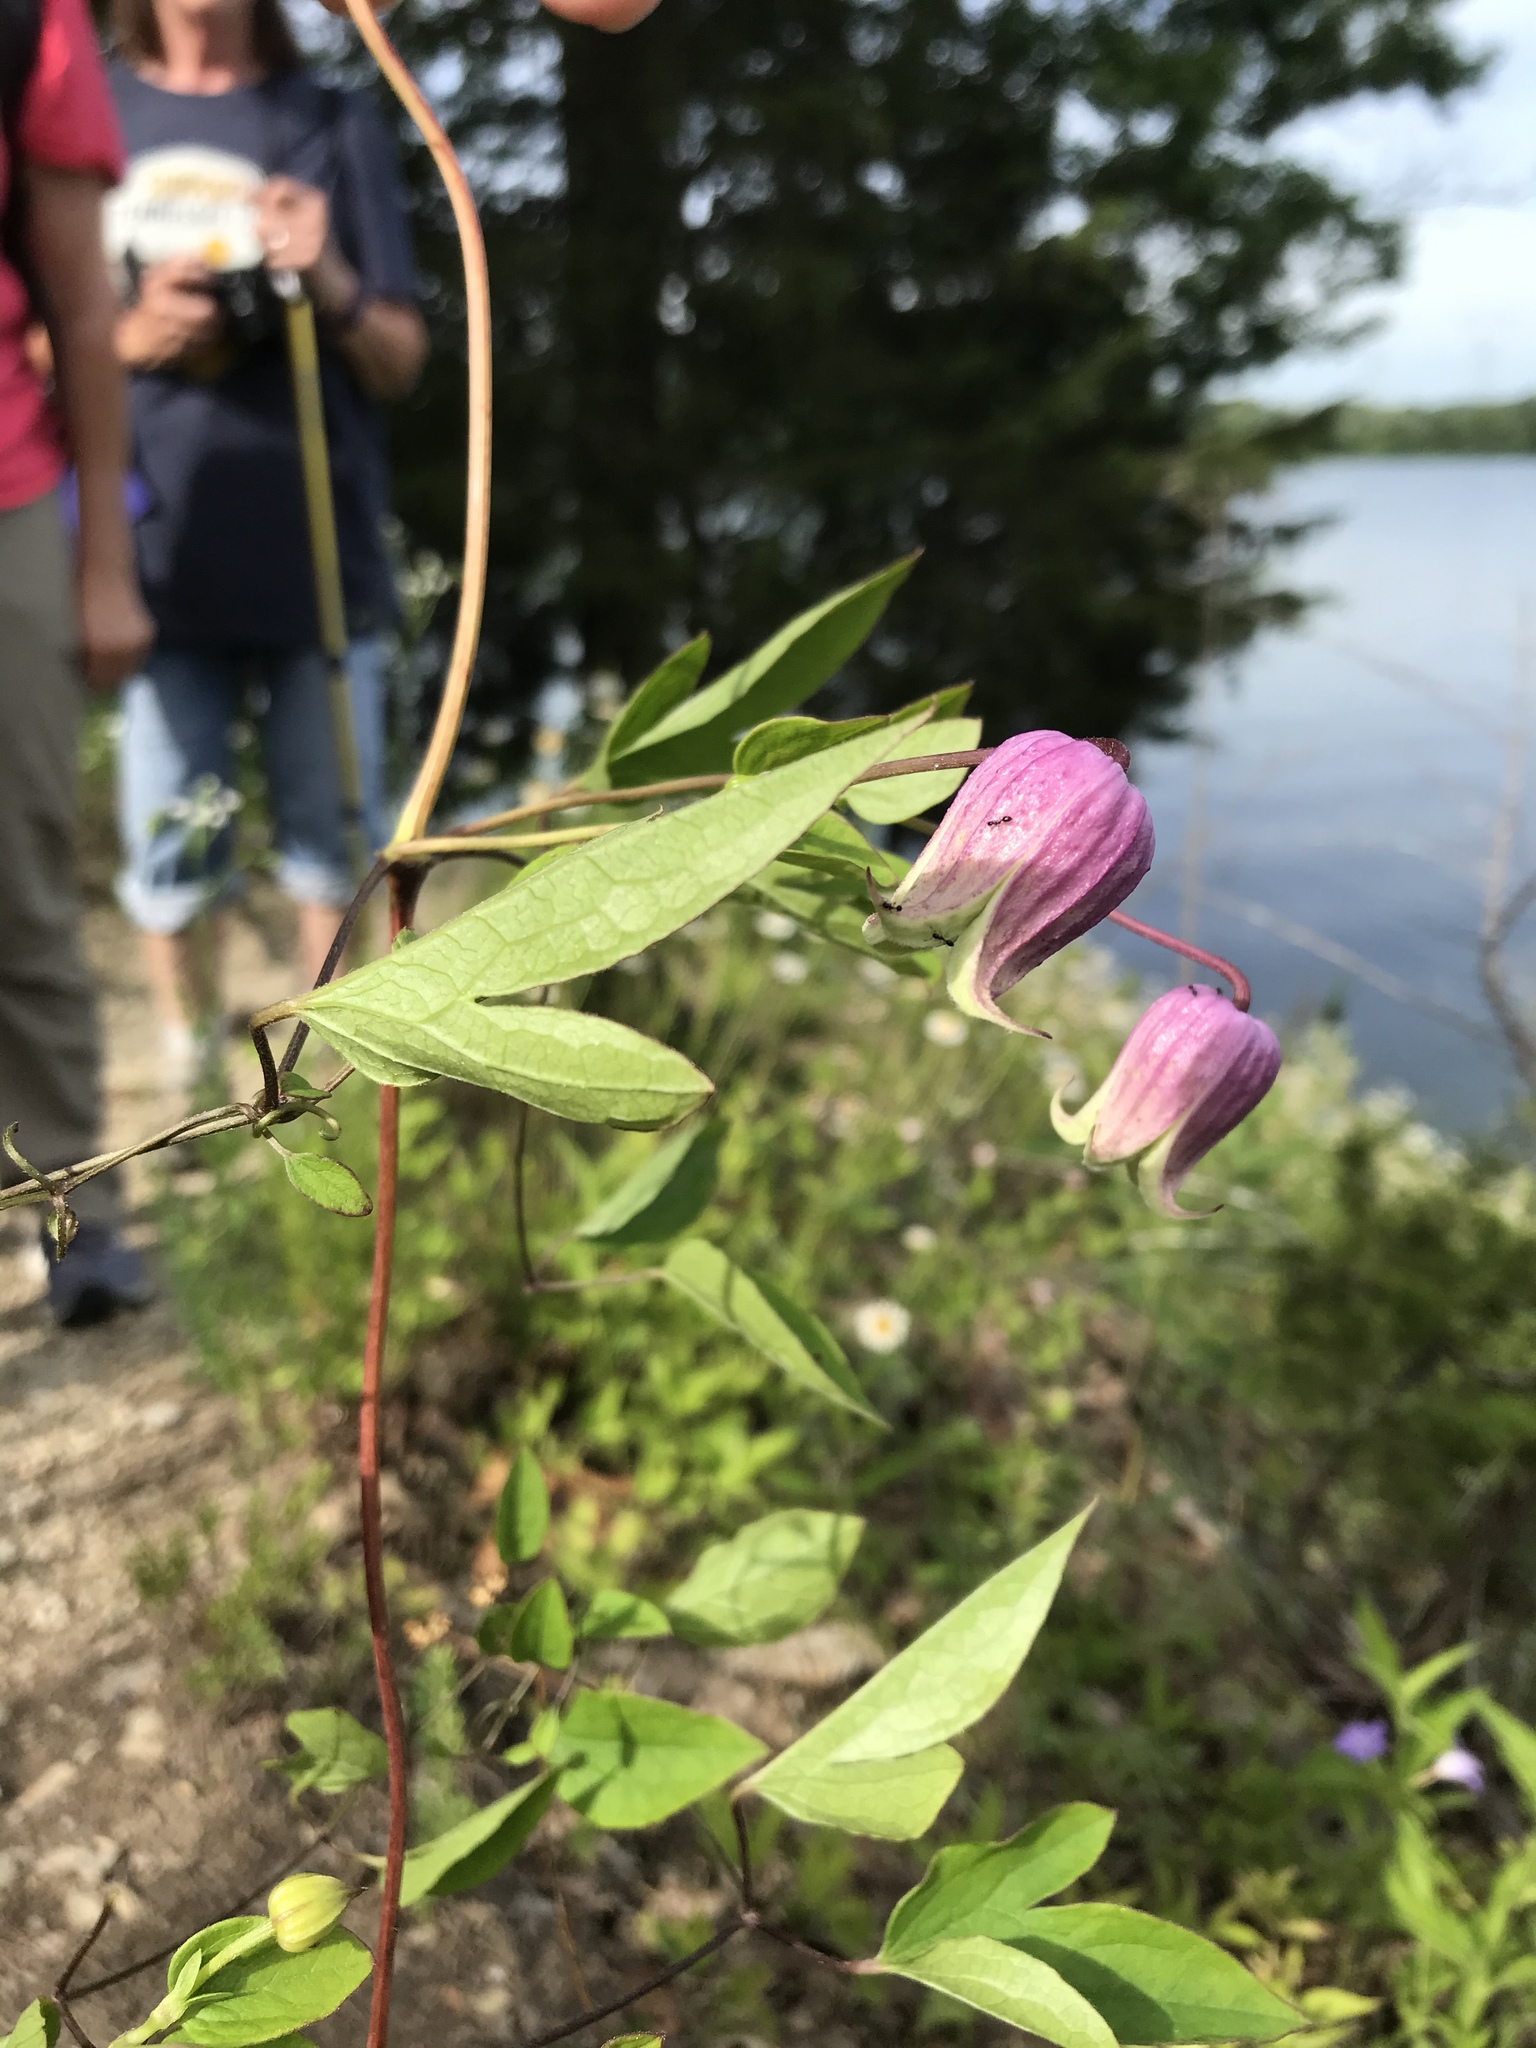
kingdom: Plantae
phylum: Tracheophyta
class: Magnoliopsida
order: Ranunculales
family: Ranunculaceae
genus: Clematis
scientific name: Clematis viorna
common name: Leather-flower
